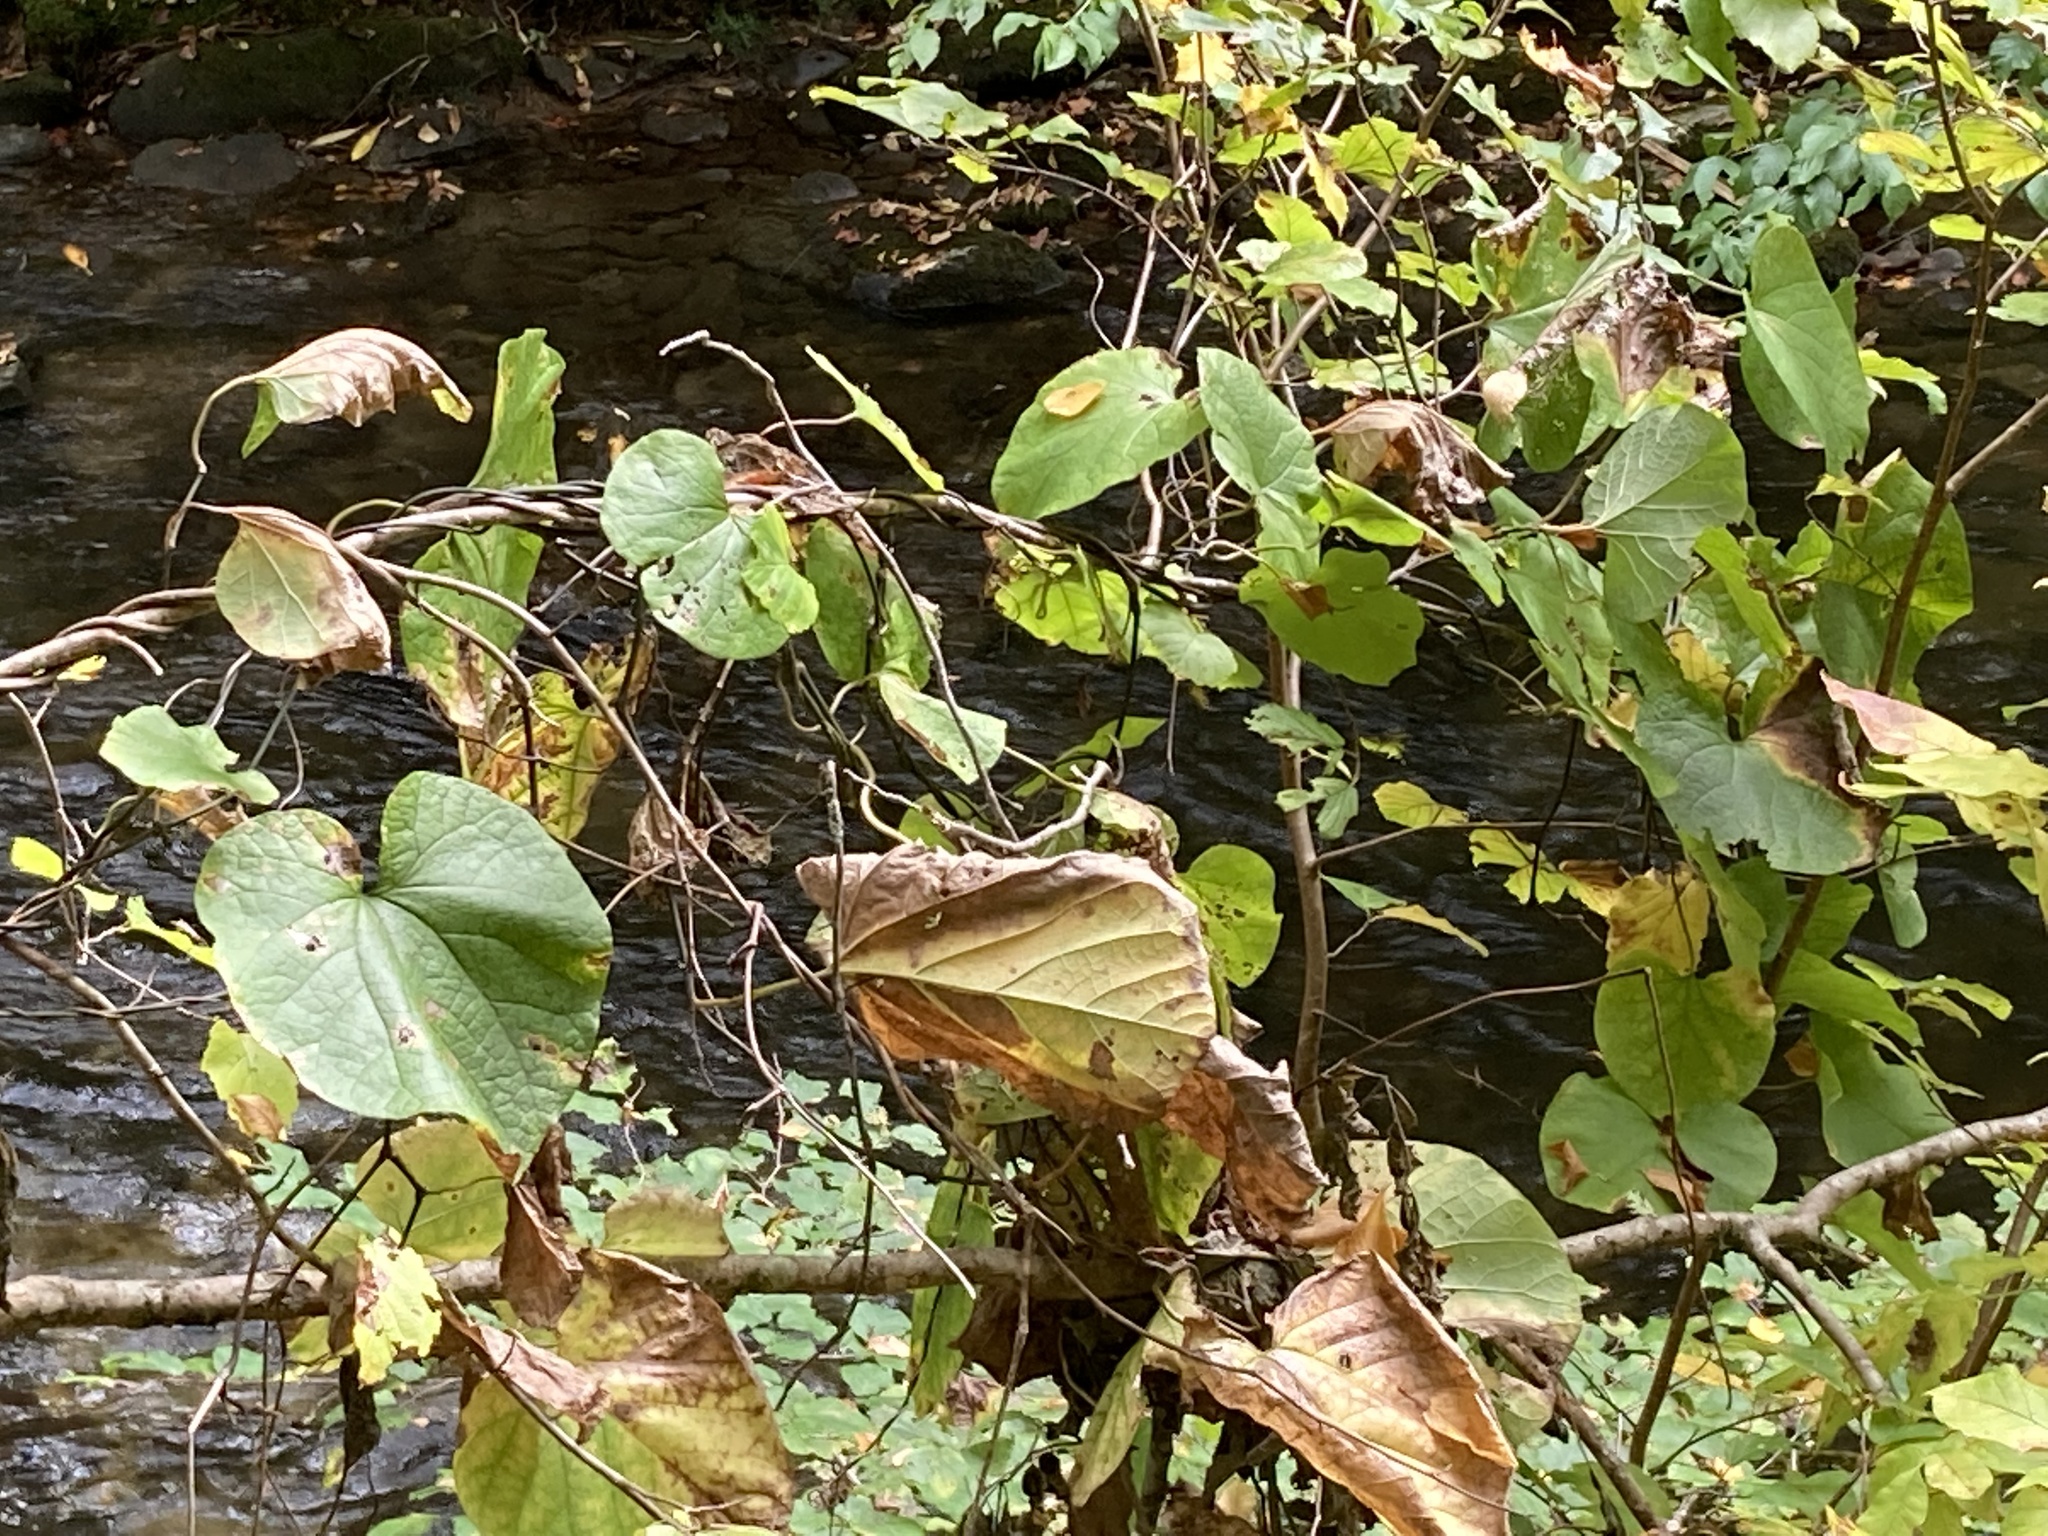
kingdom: Plantae
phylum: Tracheophyta
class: Magnoliopsida
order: Piperales
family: Aristolochiaceae
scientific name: Aristolochiaceae
